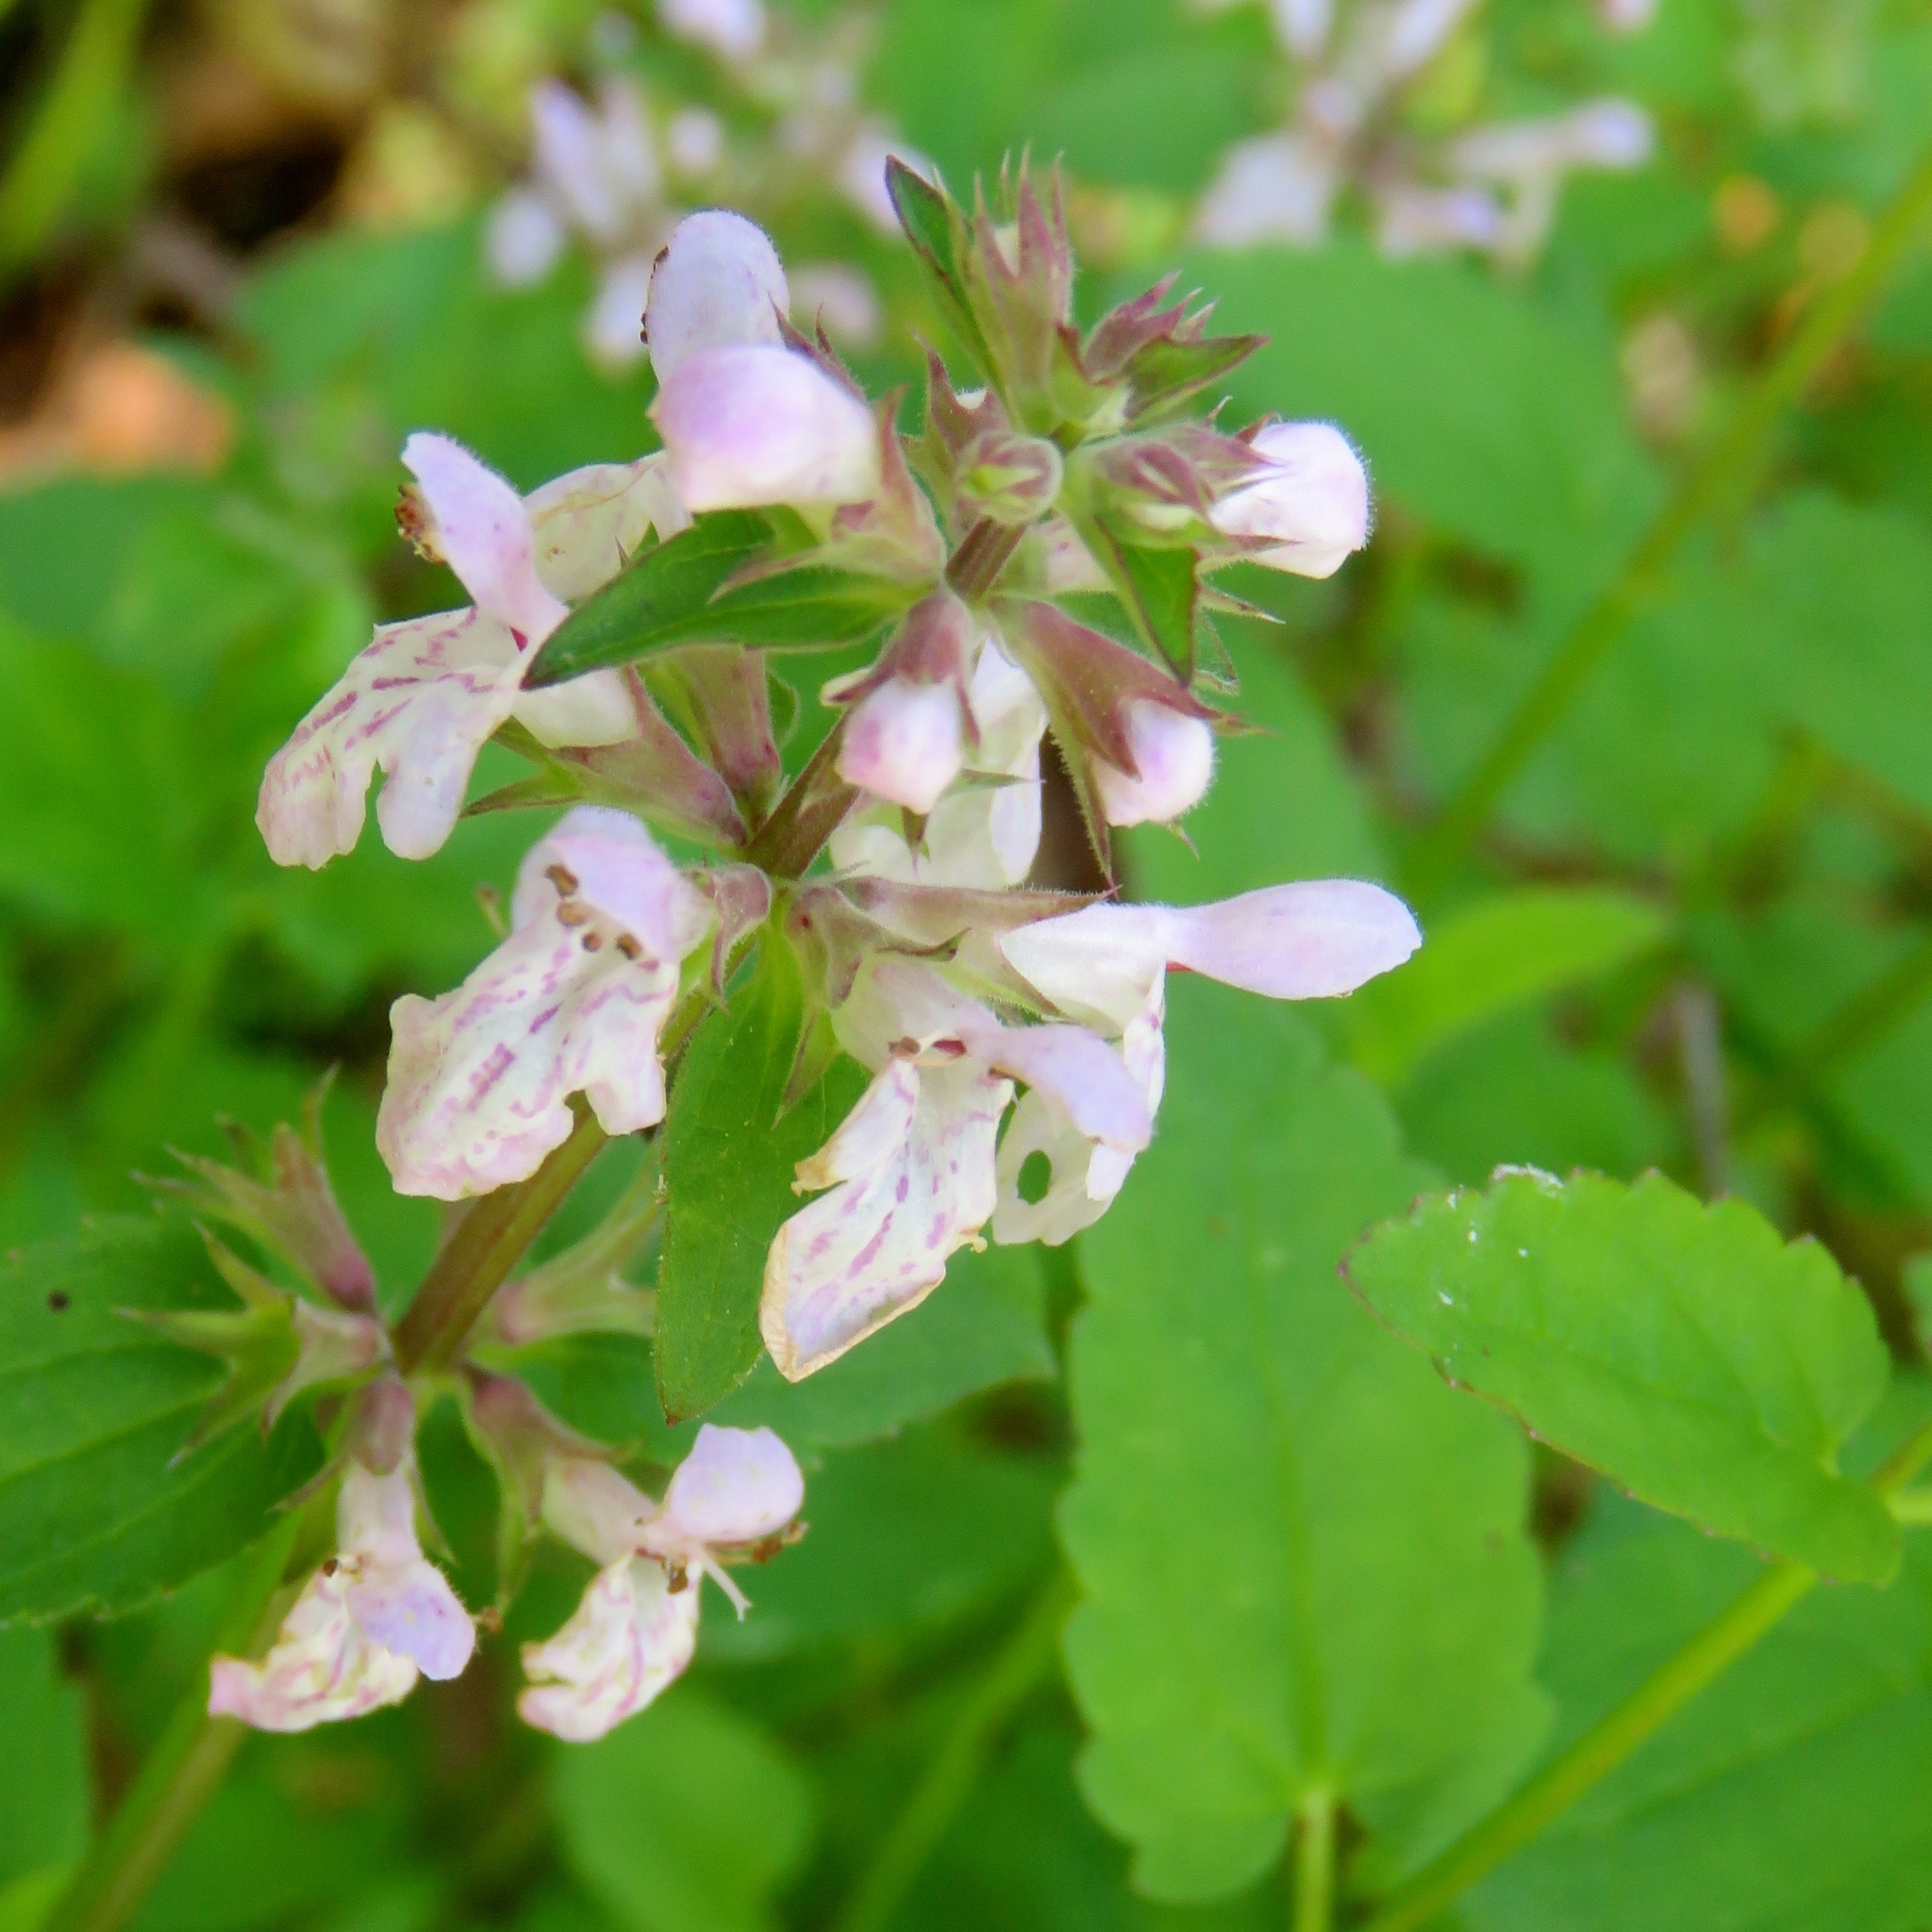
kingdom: Plantae
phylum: Tracheophyta
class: Magnoliopsida
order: Lamiales
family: Lamiaceae
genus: Stachys
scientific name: Stachys floridana
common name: Florida betony
